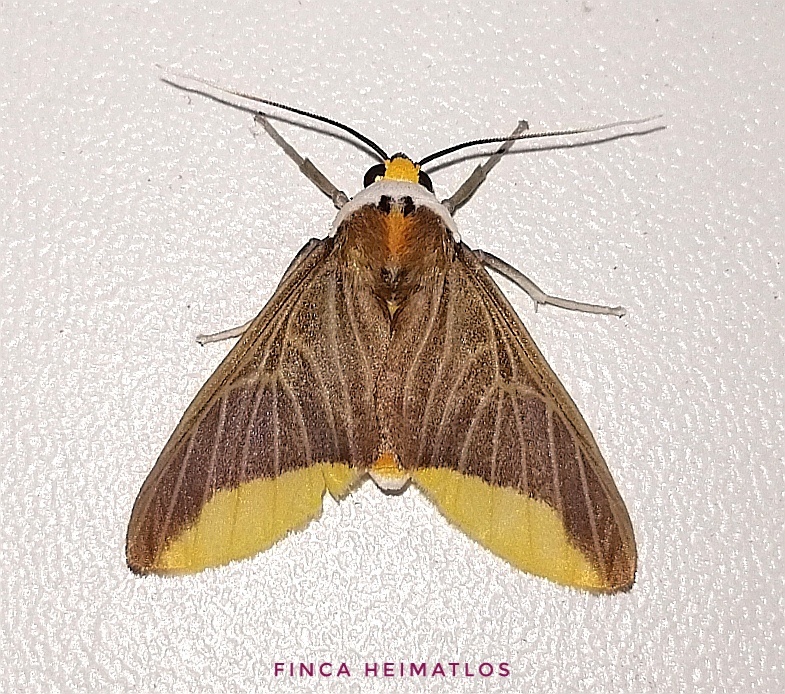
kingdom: Animalia
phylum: Arthropoda
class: Insecta
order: Lepidoptera
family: Erebidae
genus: Hyperandra
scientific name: Hyperandra appendiculata
